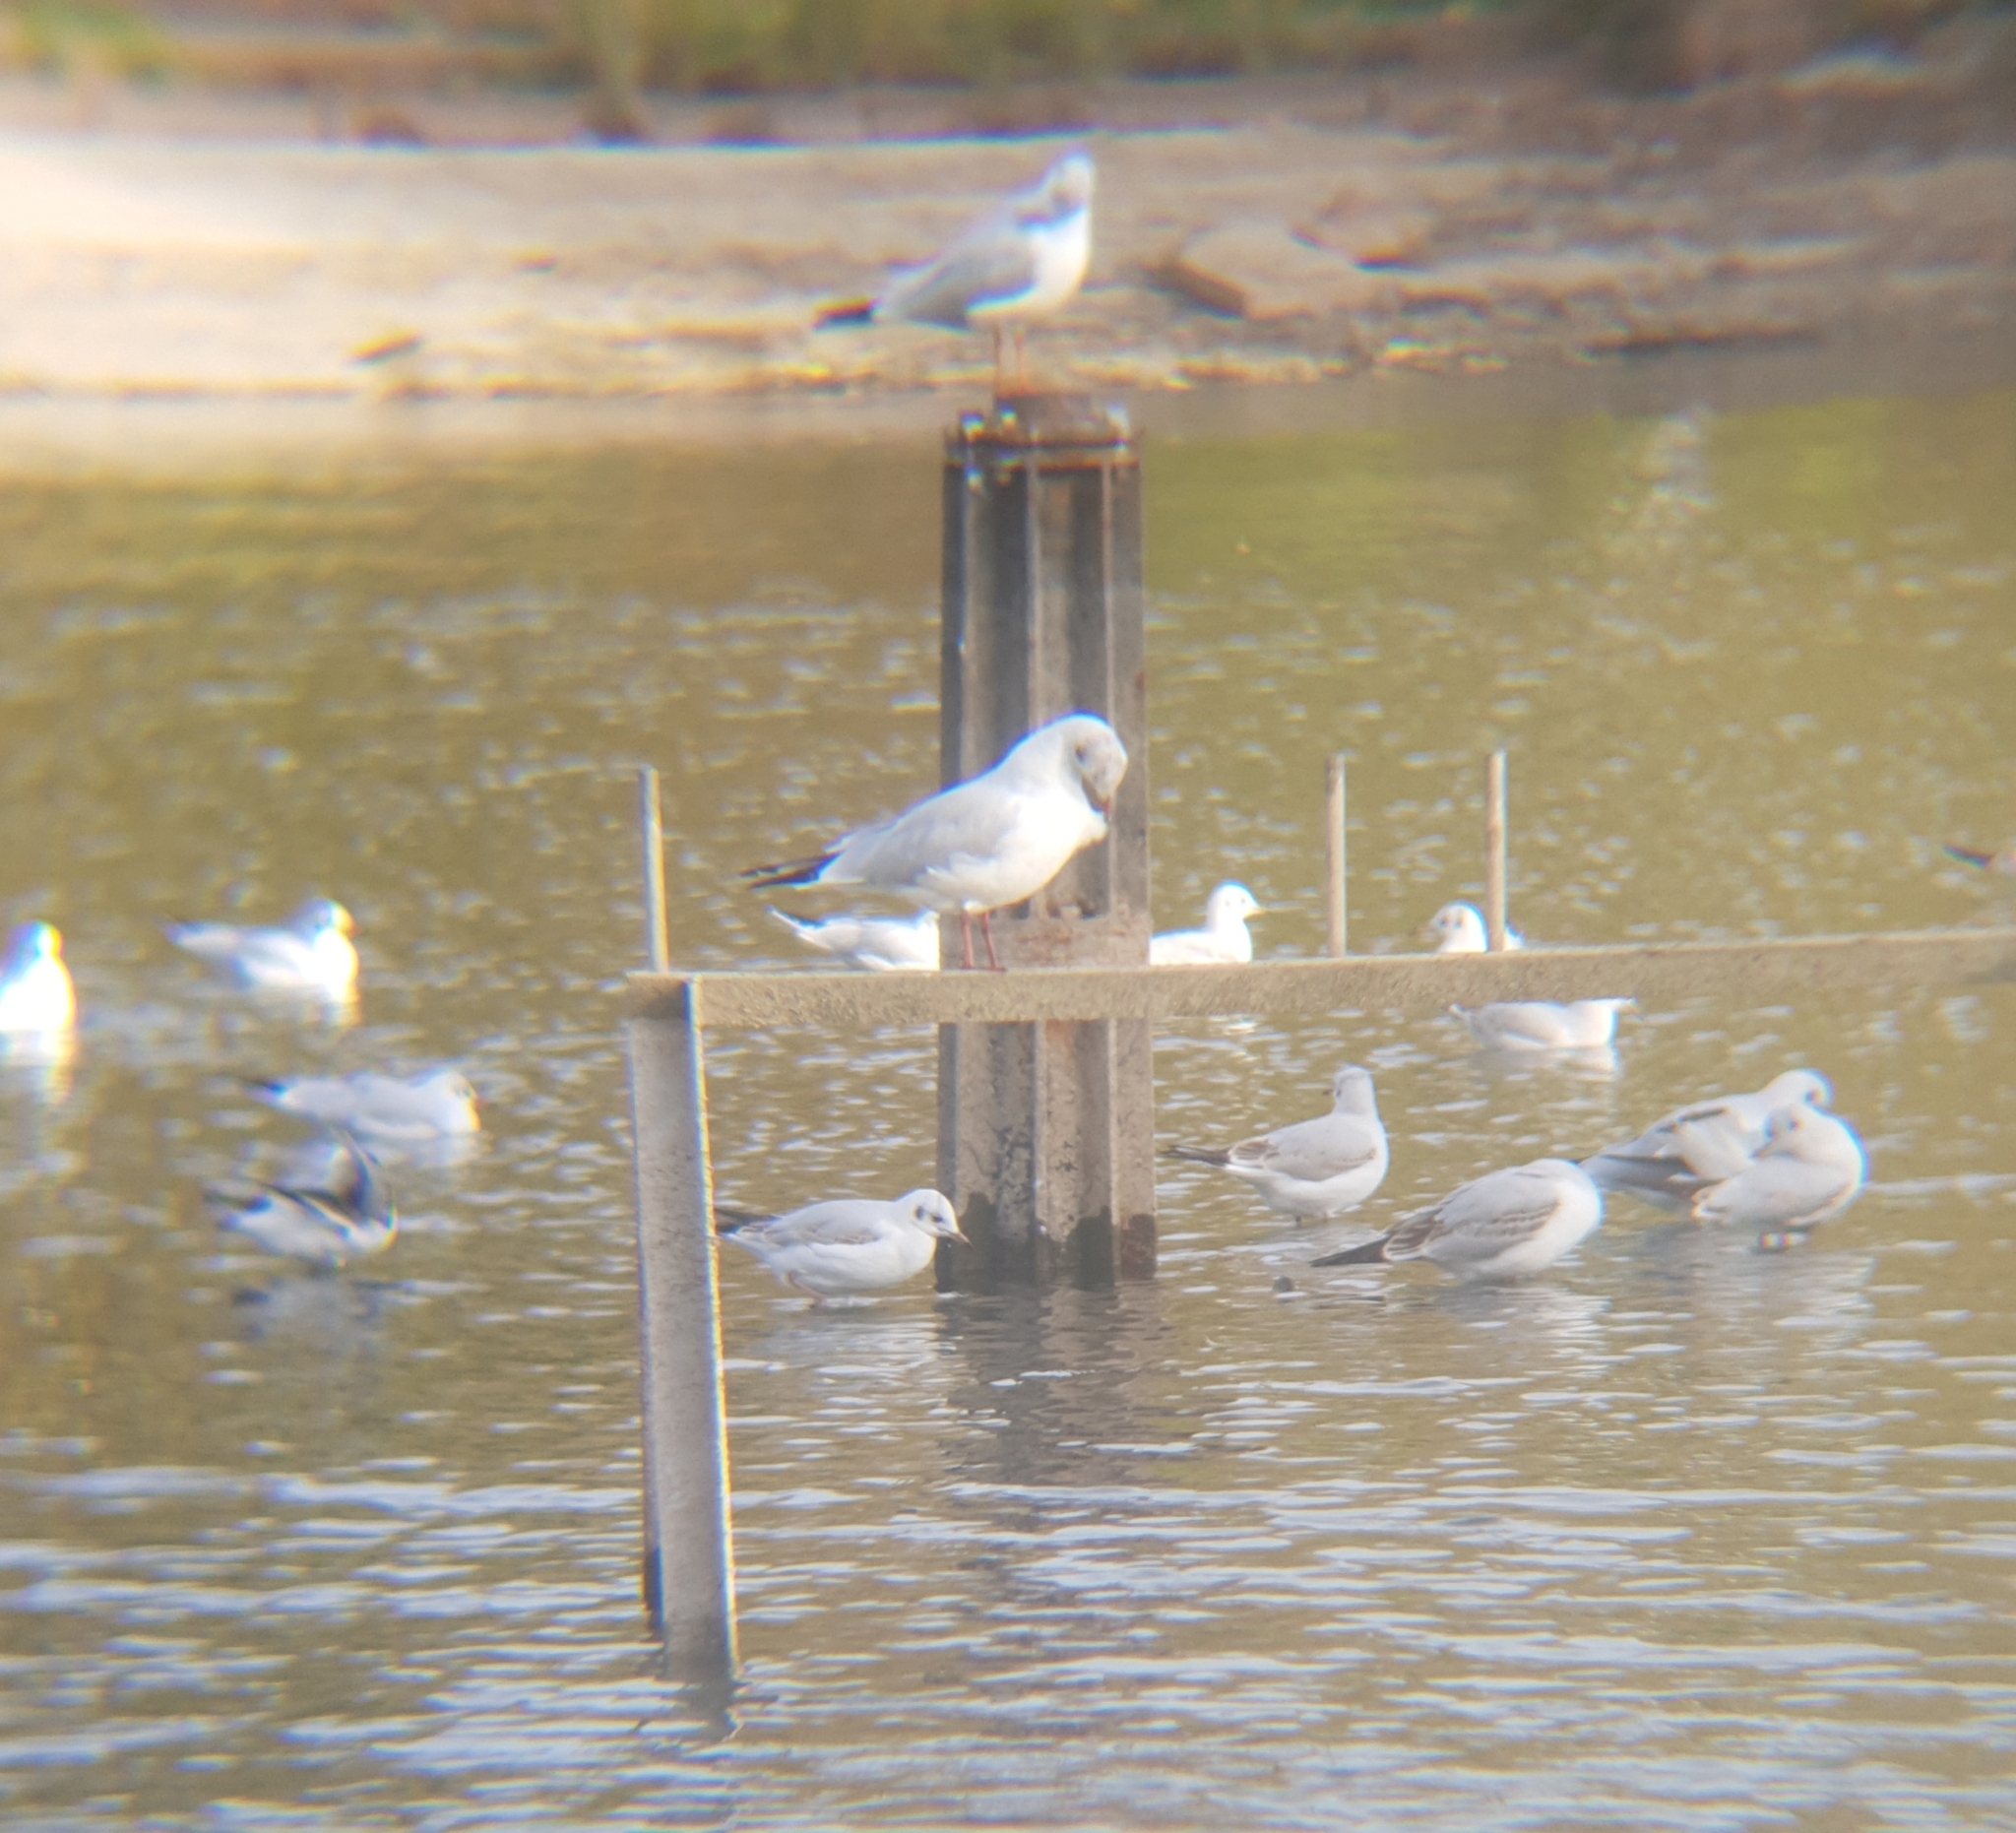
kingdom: Animalia
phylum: Chordata
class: Aves
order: Charadriiformes
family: Laridae
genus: Chroicocephalus
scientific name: Chroicocephalus ridibundus
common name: Black-headed gull
